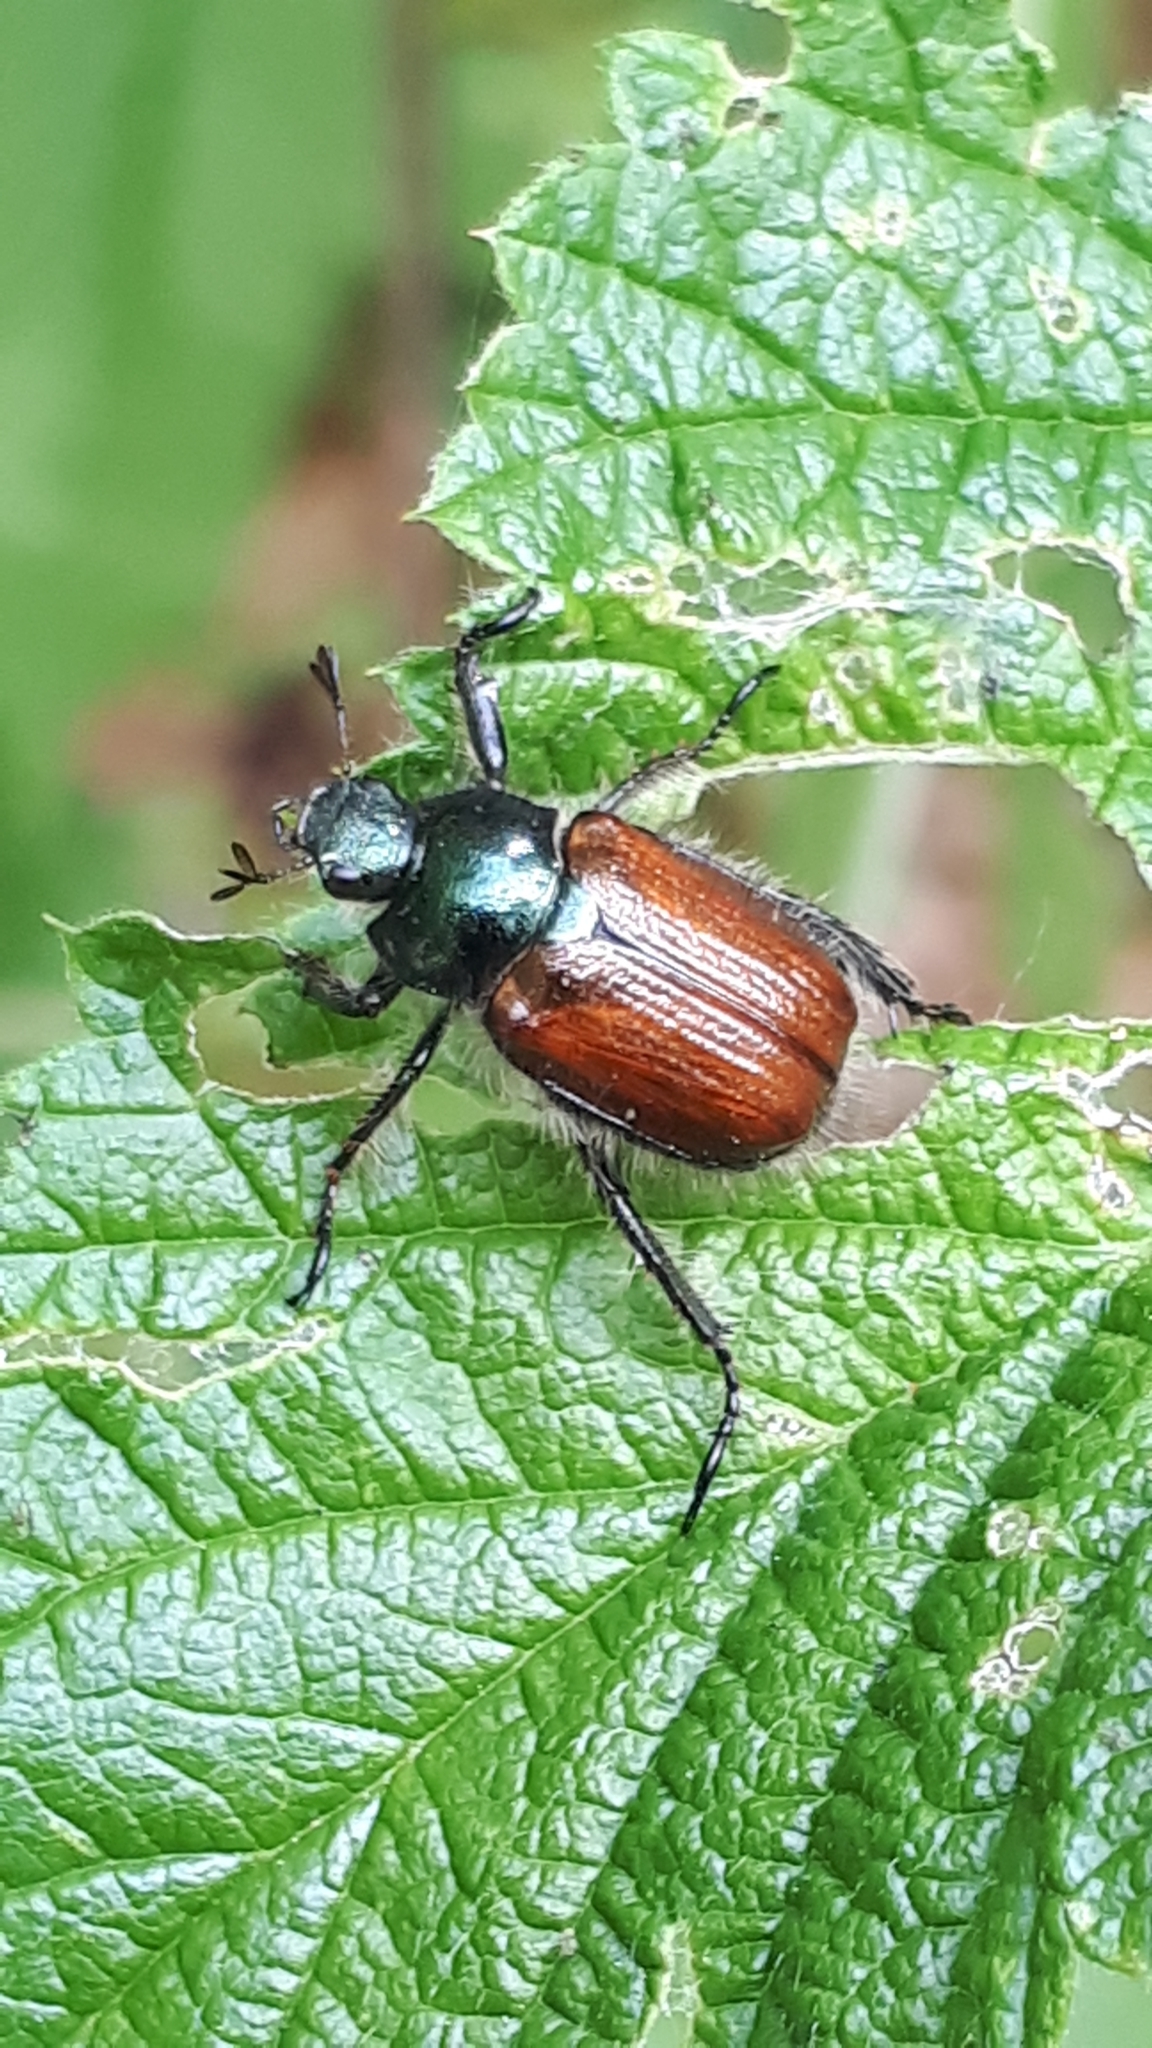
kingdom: Animalia
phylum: Arthropoda
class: Insecta
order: Coleoptera
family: Scarabaeidae
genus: Phyllopertha
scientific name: Phyllopertha horticola
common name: Garden chafer
